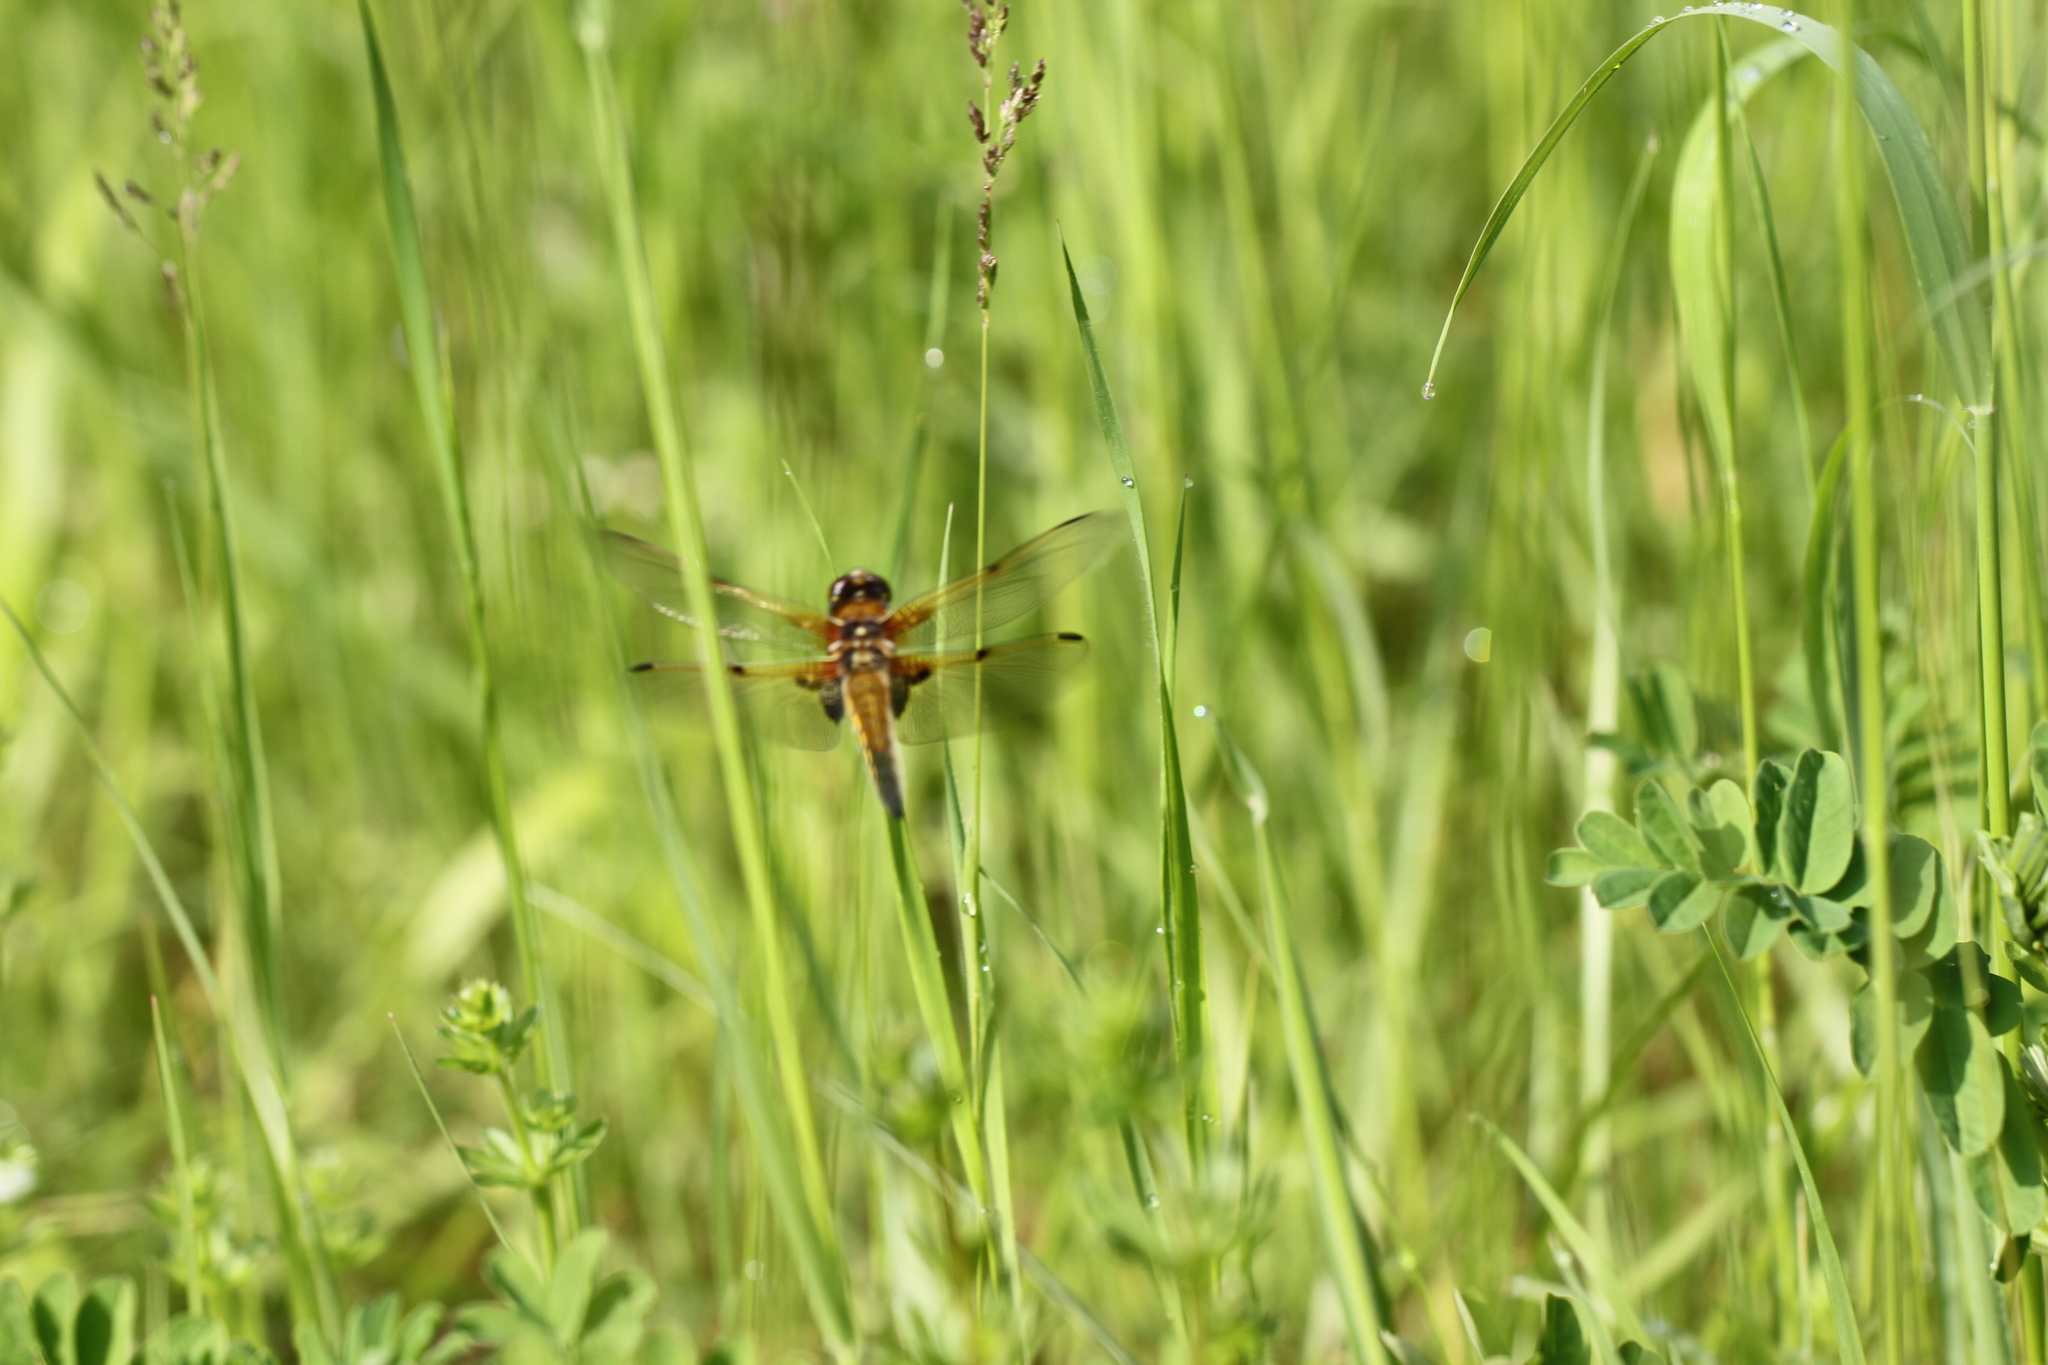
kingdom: Animalia
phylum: Arthropoda
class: Insecta
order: Odonata
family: Libellulidae
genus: Libellula
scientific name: Libellula quadrimaculata
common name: Four-spotted chaser
